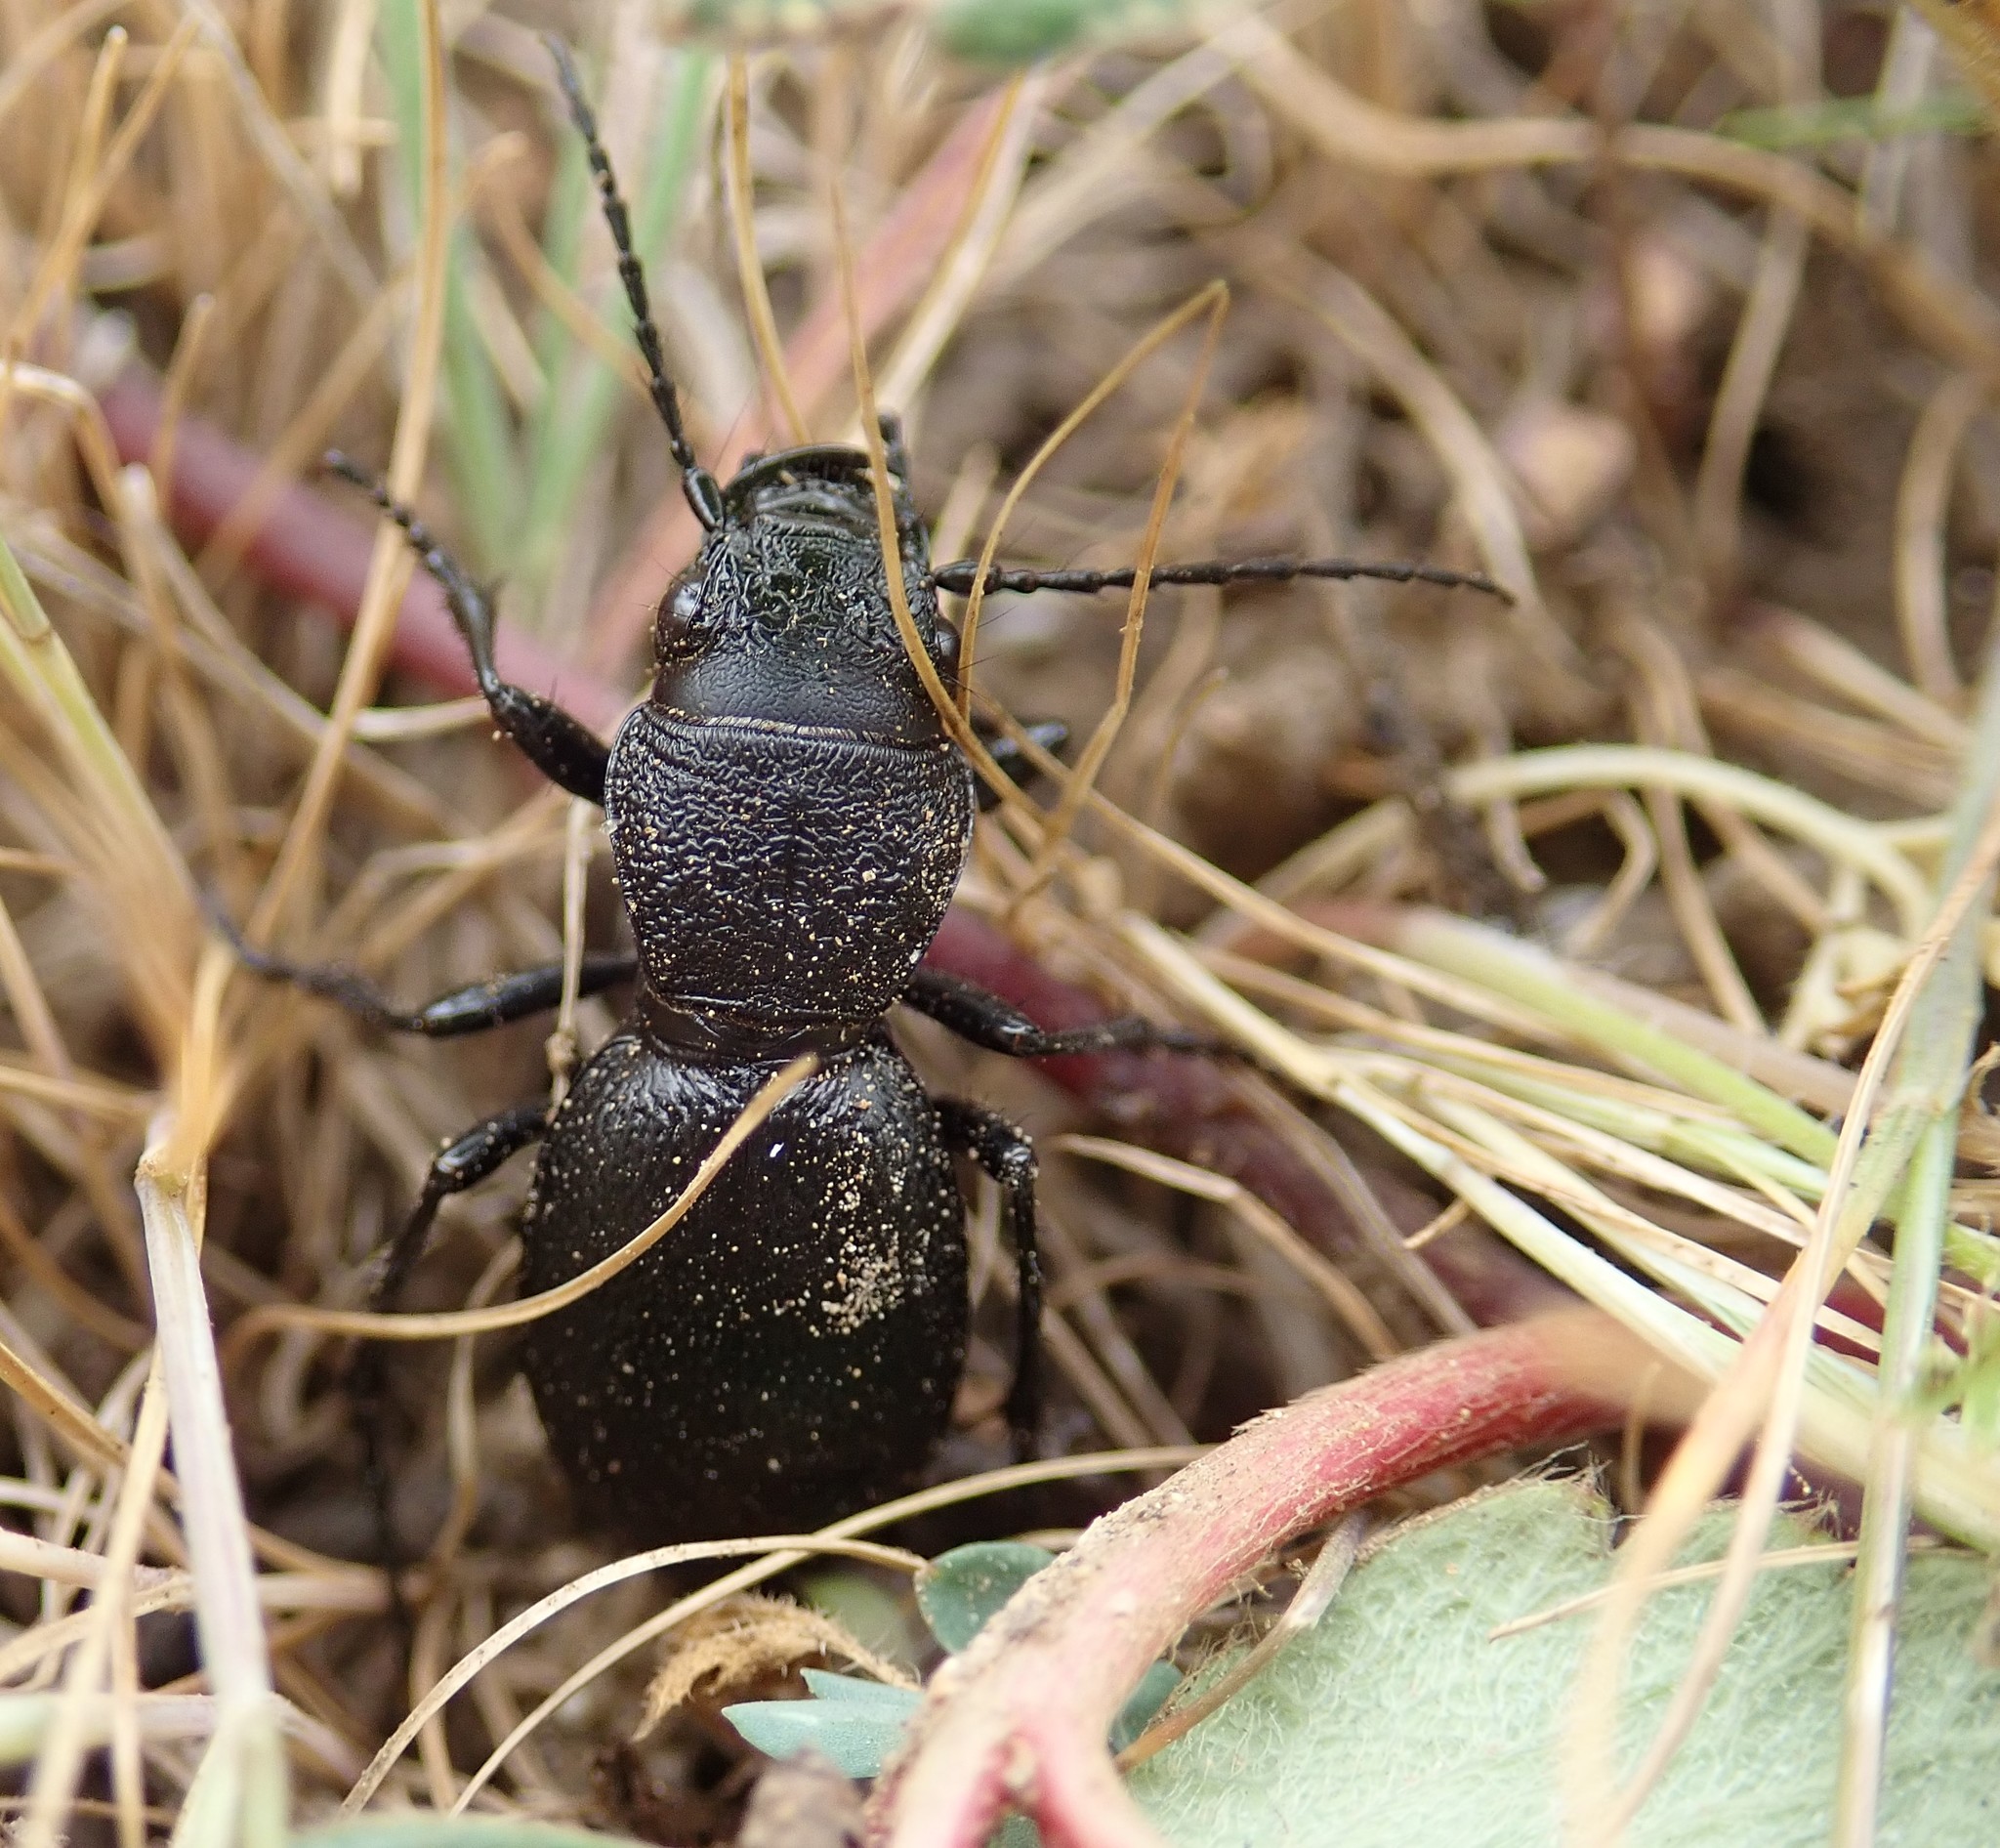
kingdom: Animalia
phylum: Arthropoda
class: Insecta
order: Coleoptera
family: Carabidae
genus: Omus
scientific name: Omus californicus
